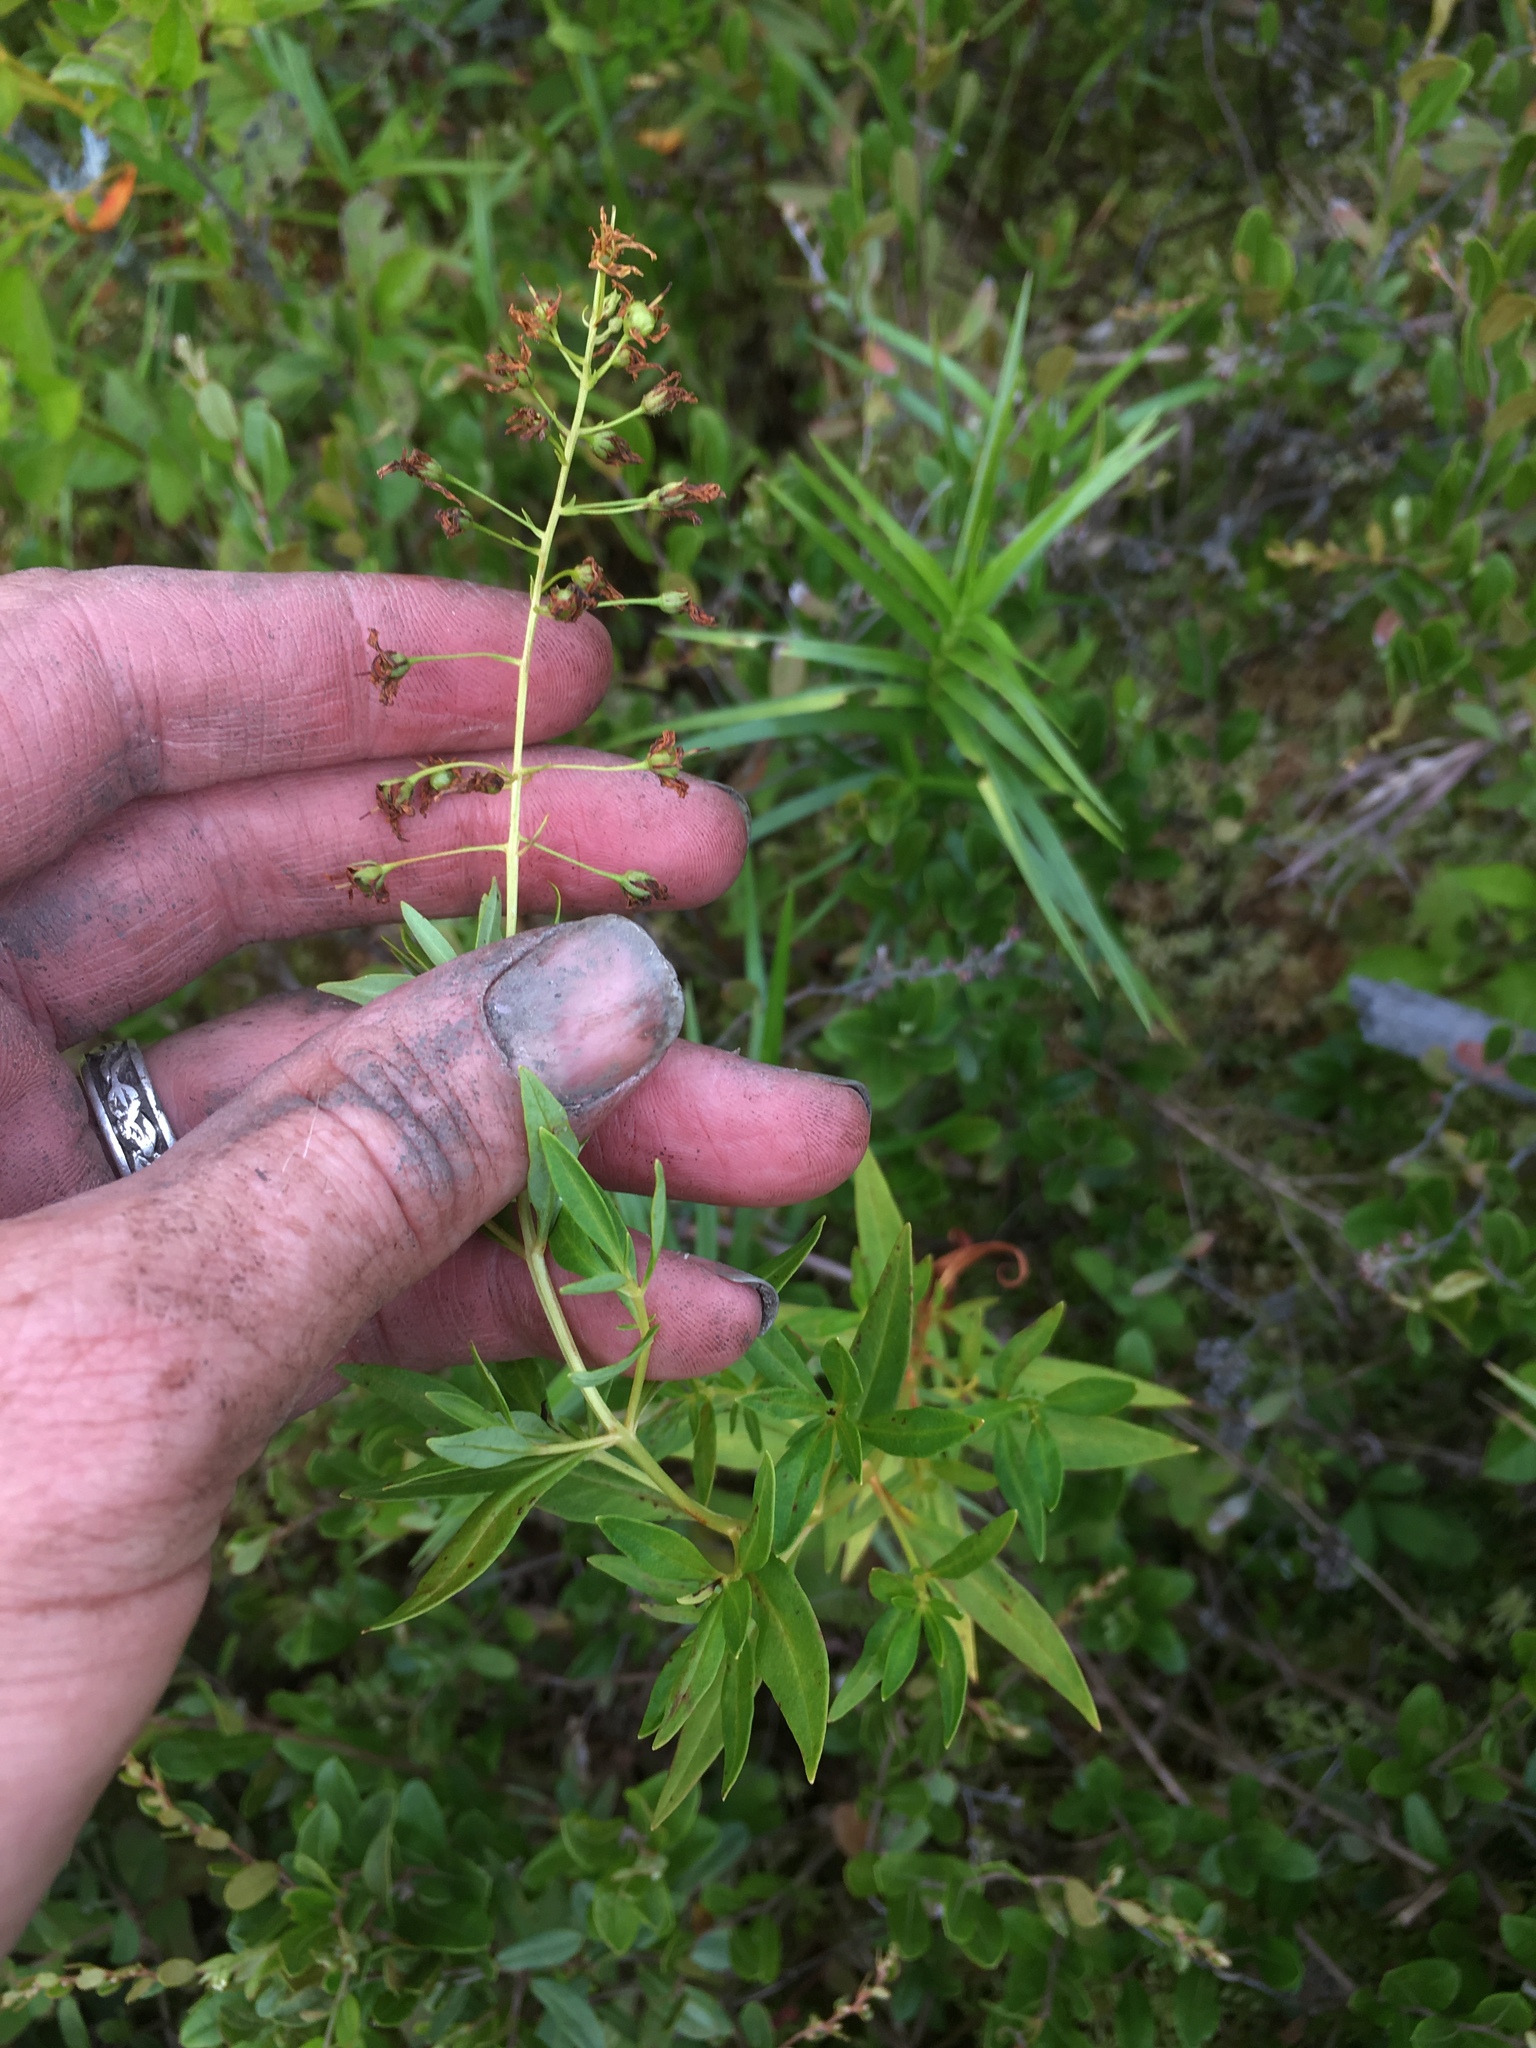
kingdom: Plantae
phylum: Tracheophyta
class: Magnoliopsida
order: Ericales
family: Primulaceae
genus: Lysimachia
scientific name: Lysimachia terrestris
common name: Lake loosestrife
